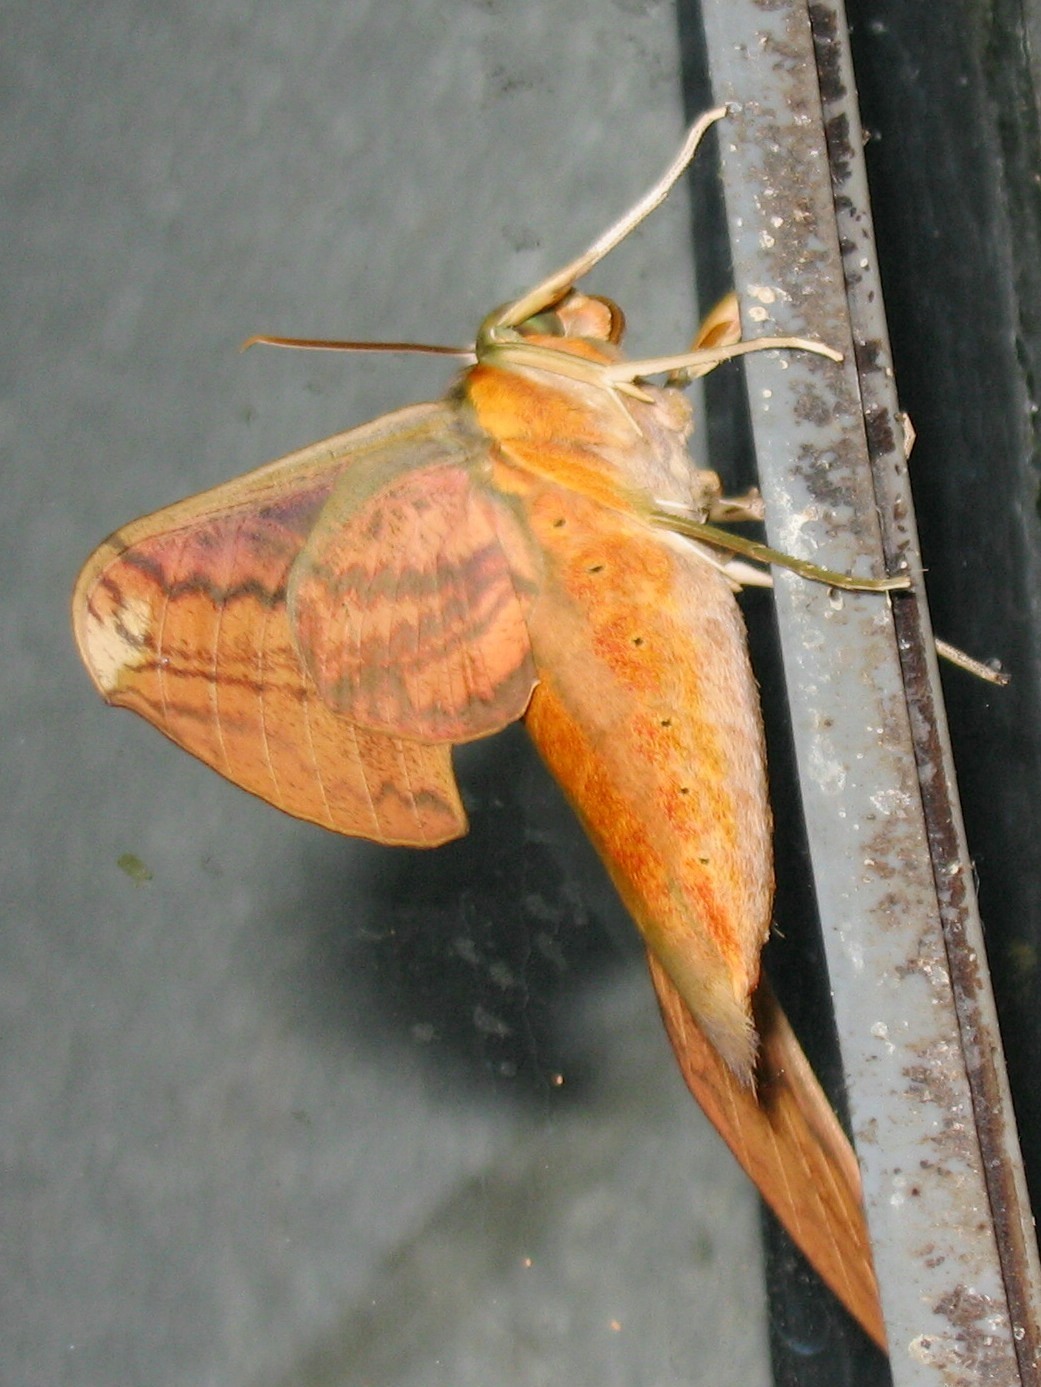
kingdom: Animalia
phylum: Arthropoda
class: Insecta
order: Lepidoptera
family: Sphingidae
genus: Theretra
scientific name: Theretra nessus
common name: Yam hawk moth
